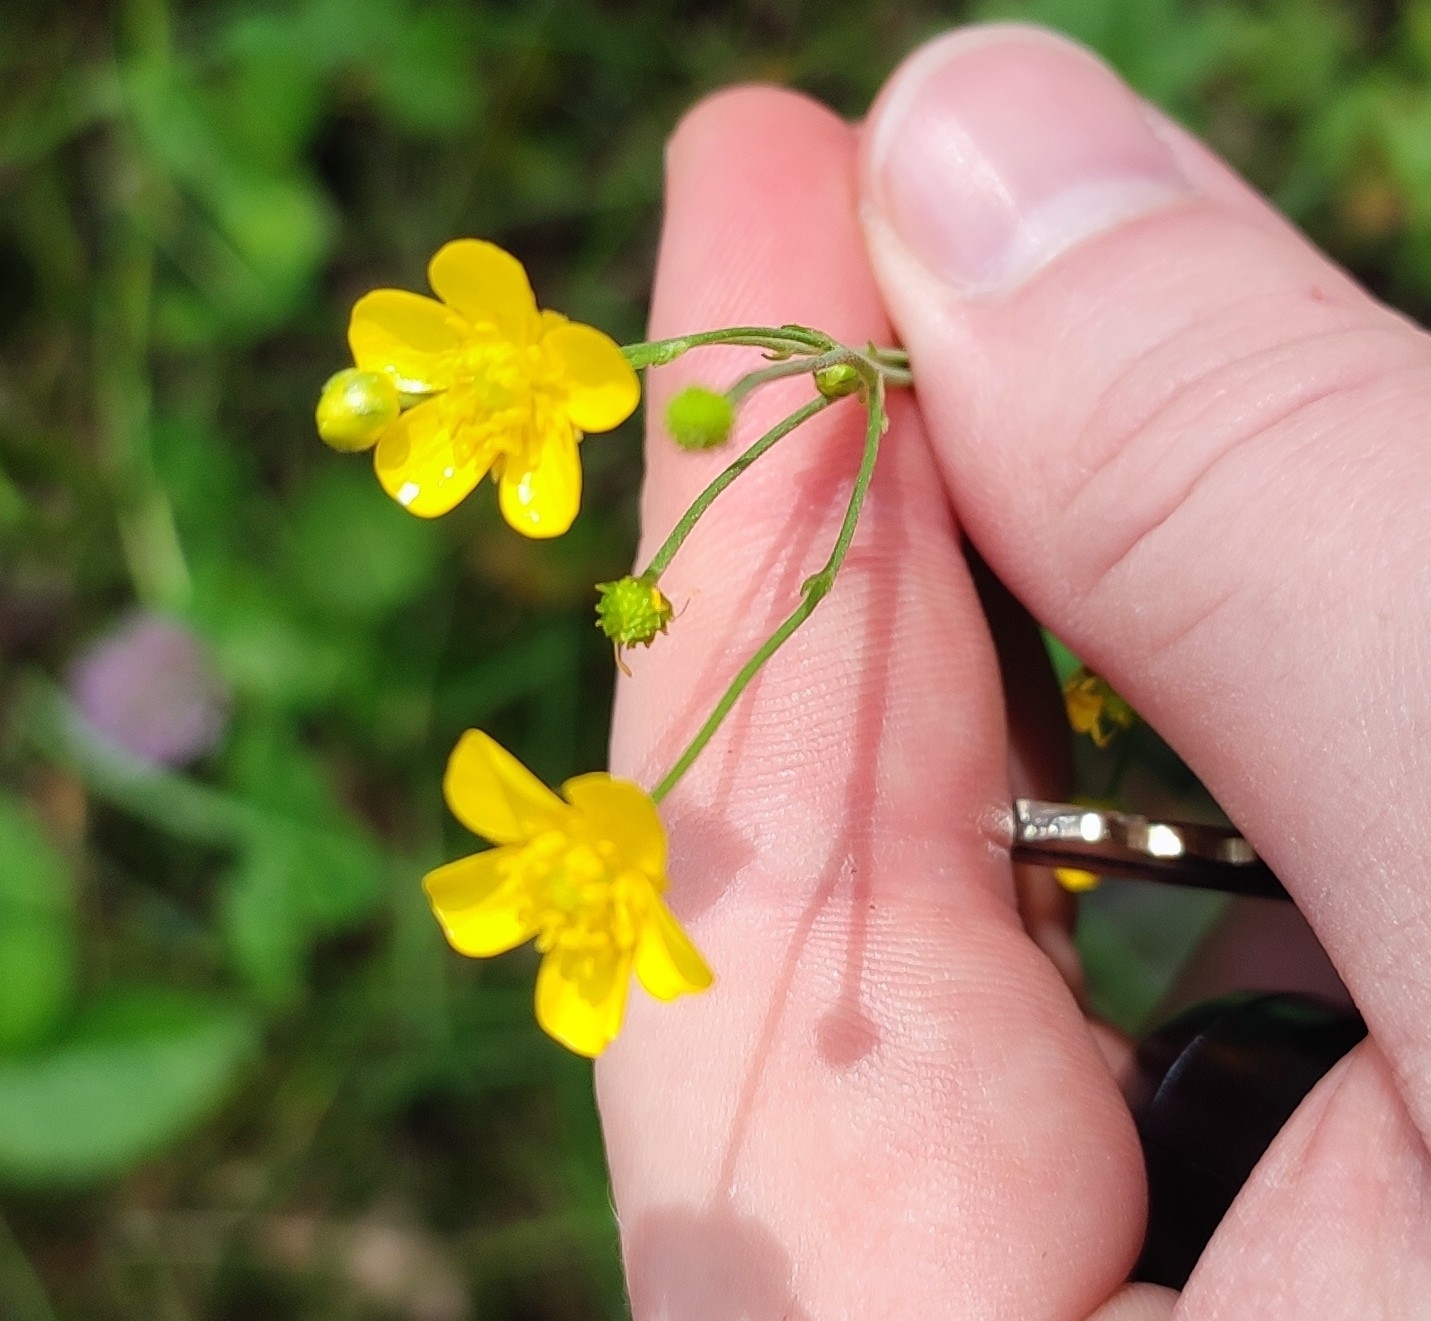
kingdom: Plantae
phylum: Tracheophyta
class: Magnoliopsida
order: Ranunculales
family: Ranunculaceae
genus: Ranunculus
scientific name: Ranunculus acris
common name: Meadow buttercup
